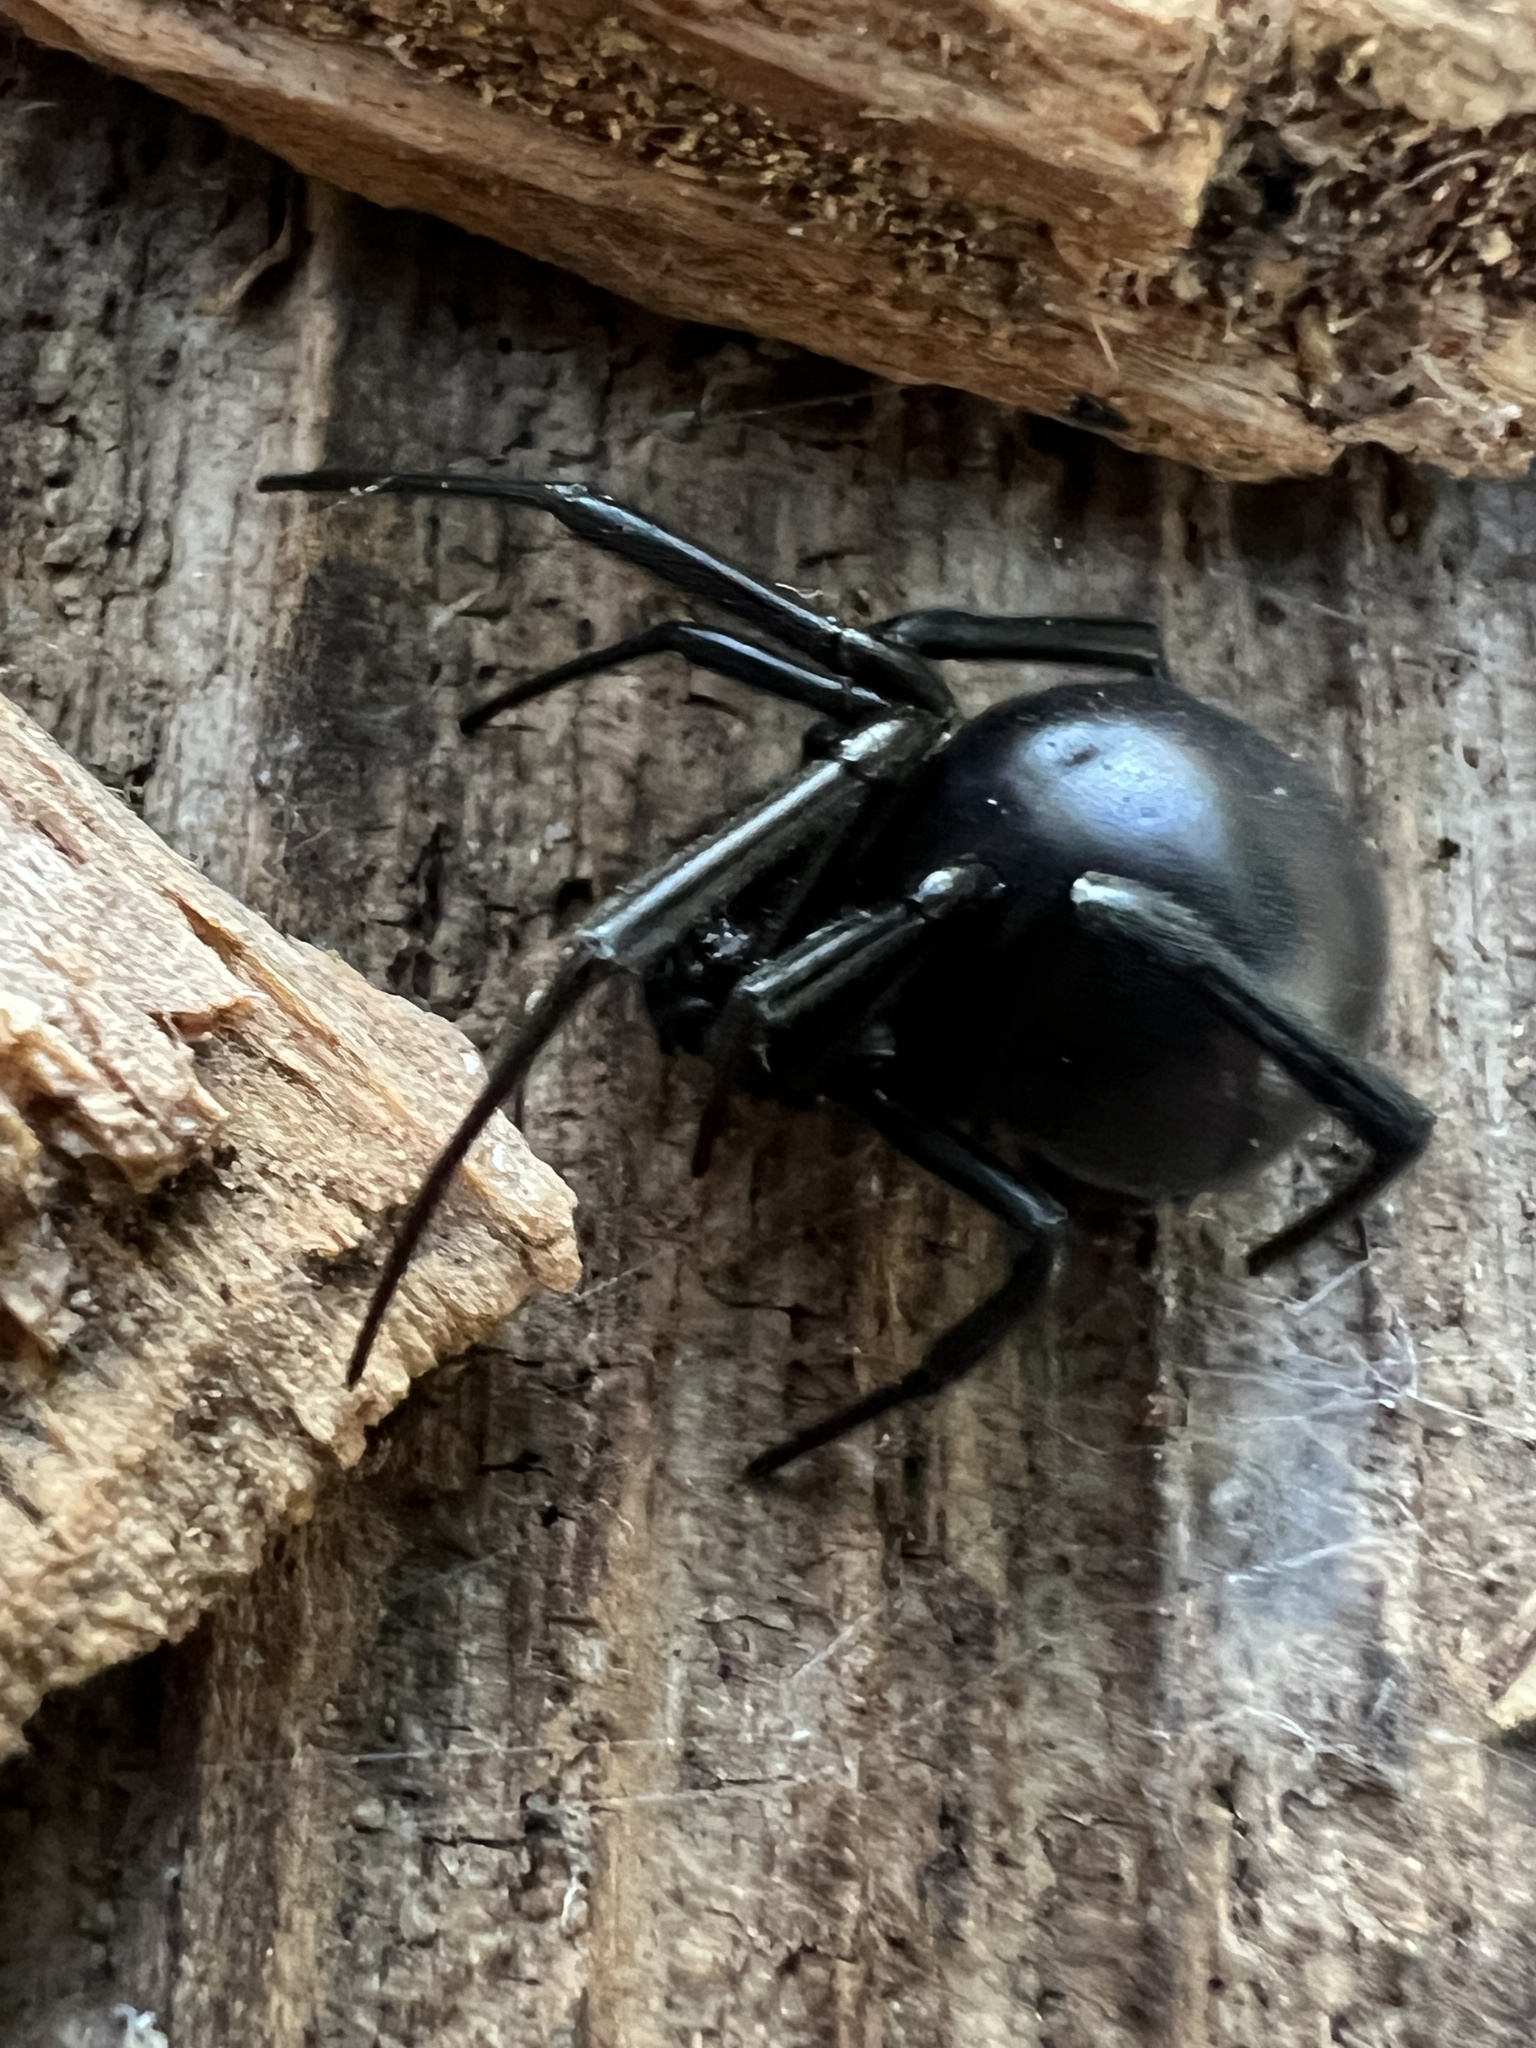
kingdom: Animalia
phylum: Arthropoda
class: Arachnida
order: Araneae
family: Theridiidae
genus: Latrodectus
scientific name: Latrodectus hesperus
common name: Western black widow
